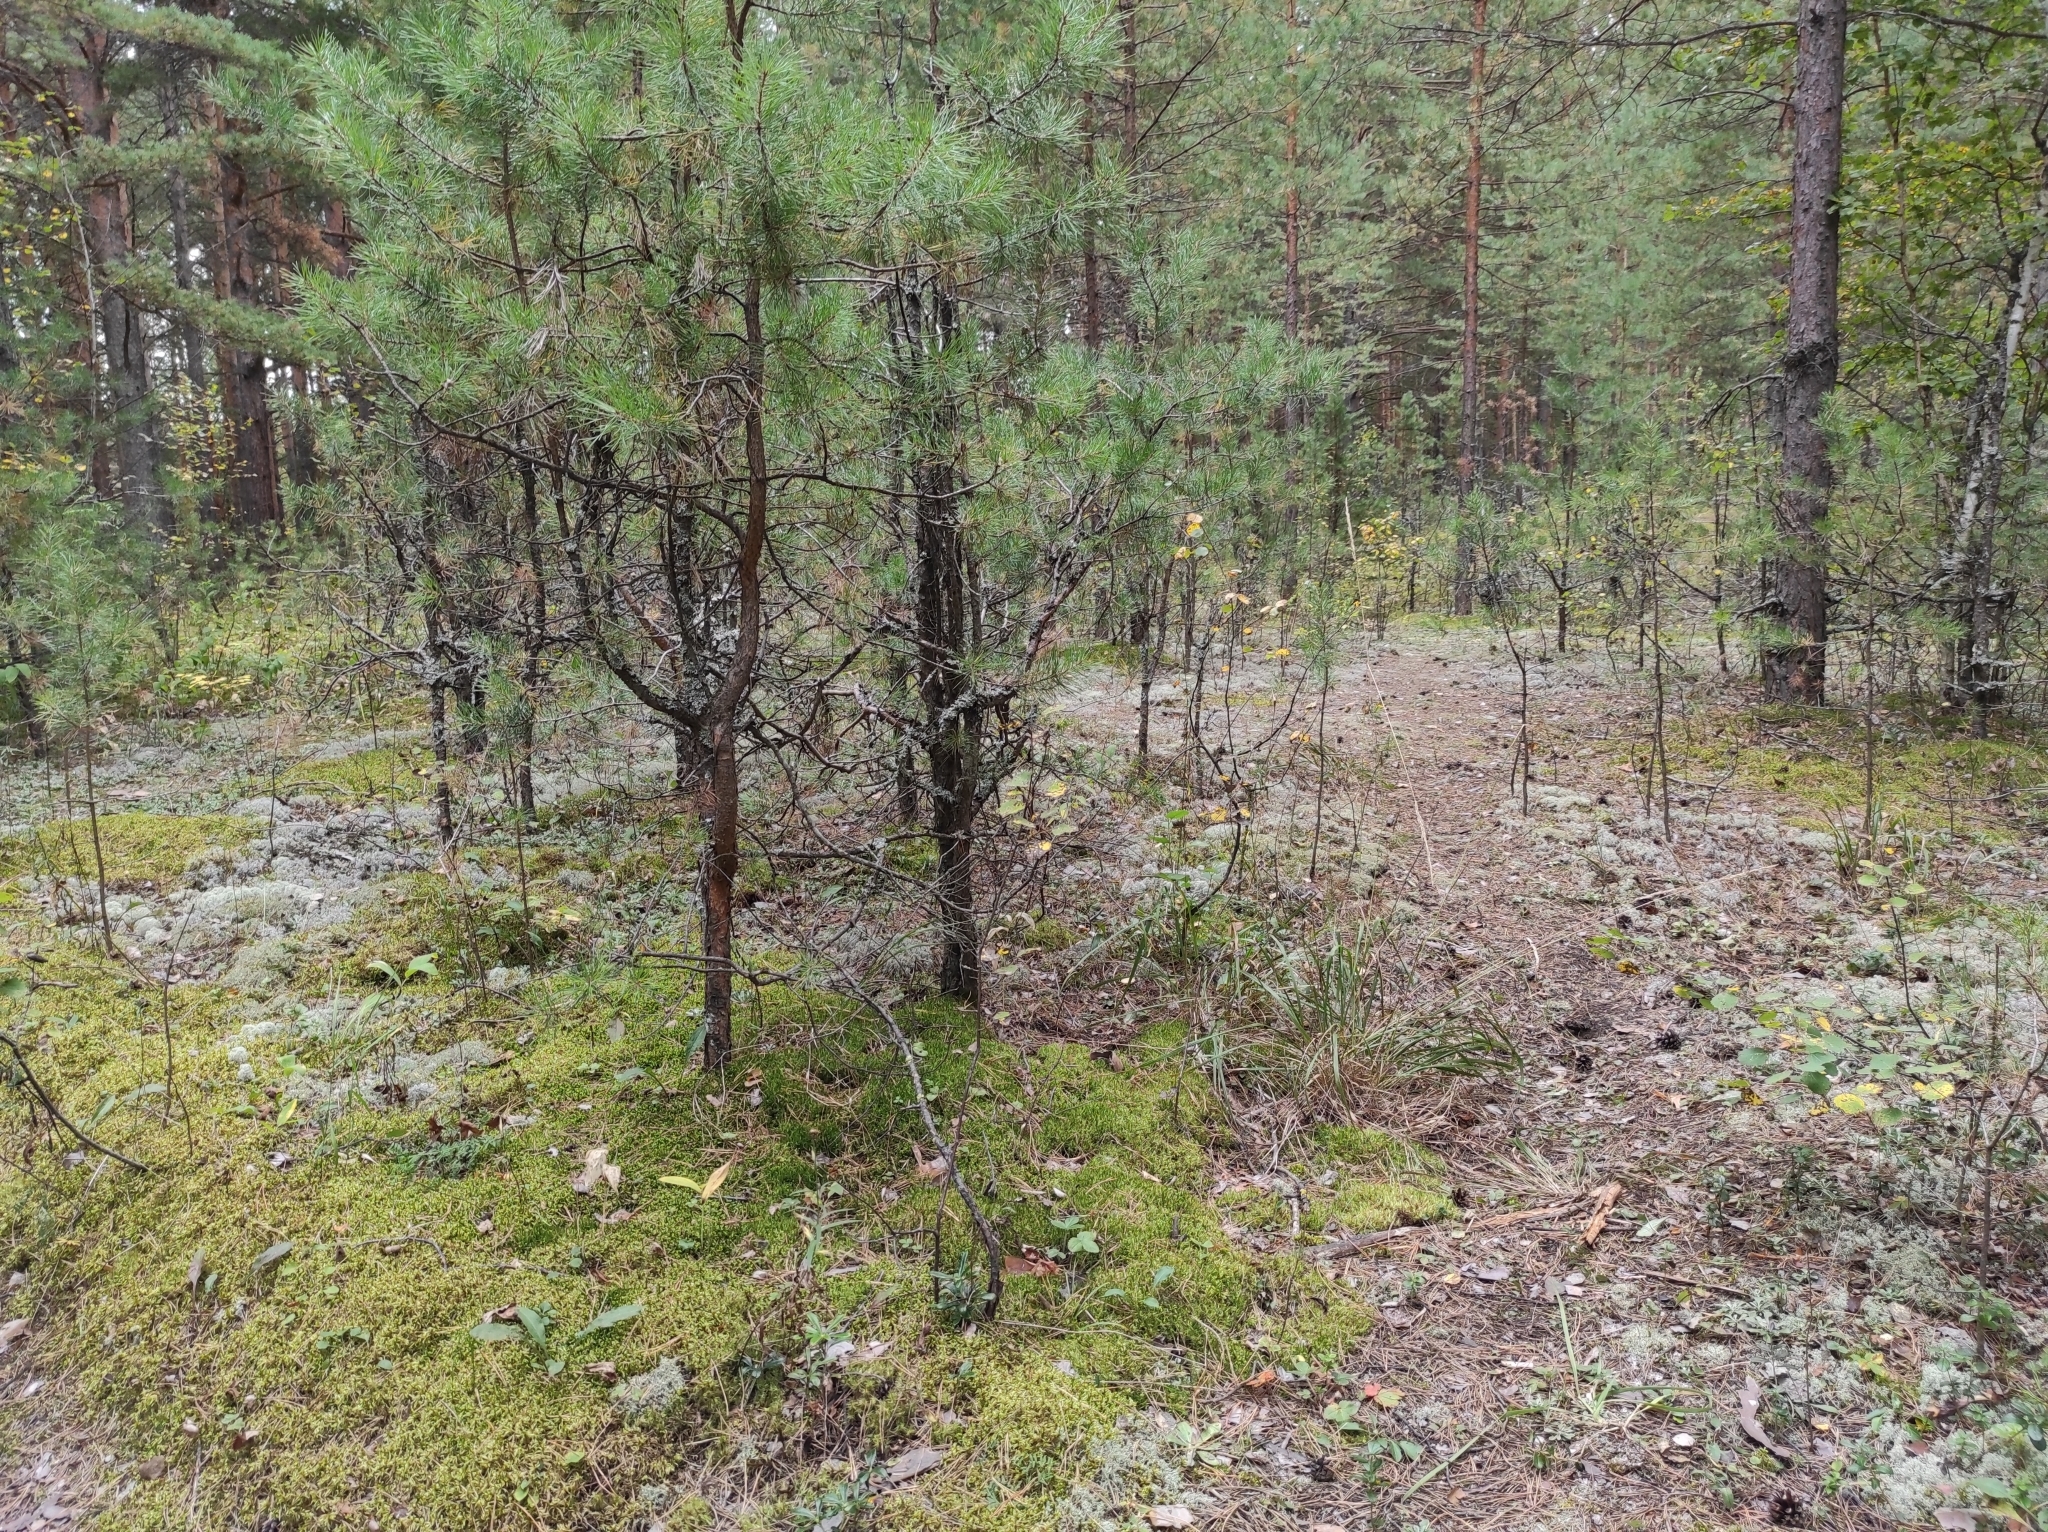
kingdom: Plantae
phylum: Tracheophyta
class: Pinopsida
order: Pinales
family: Pinaceae
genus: Pinus
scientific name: Pinus sylvestris
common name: Scots pine
